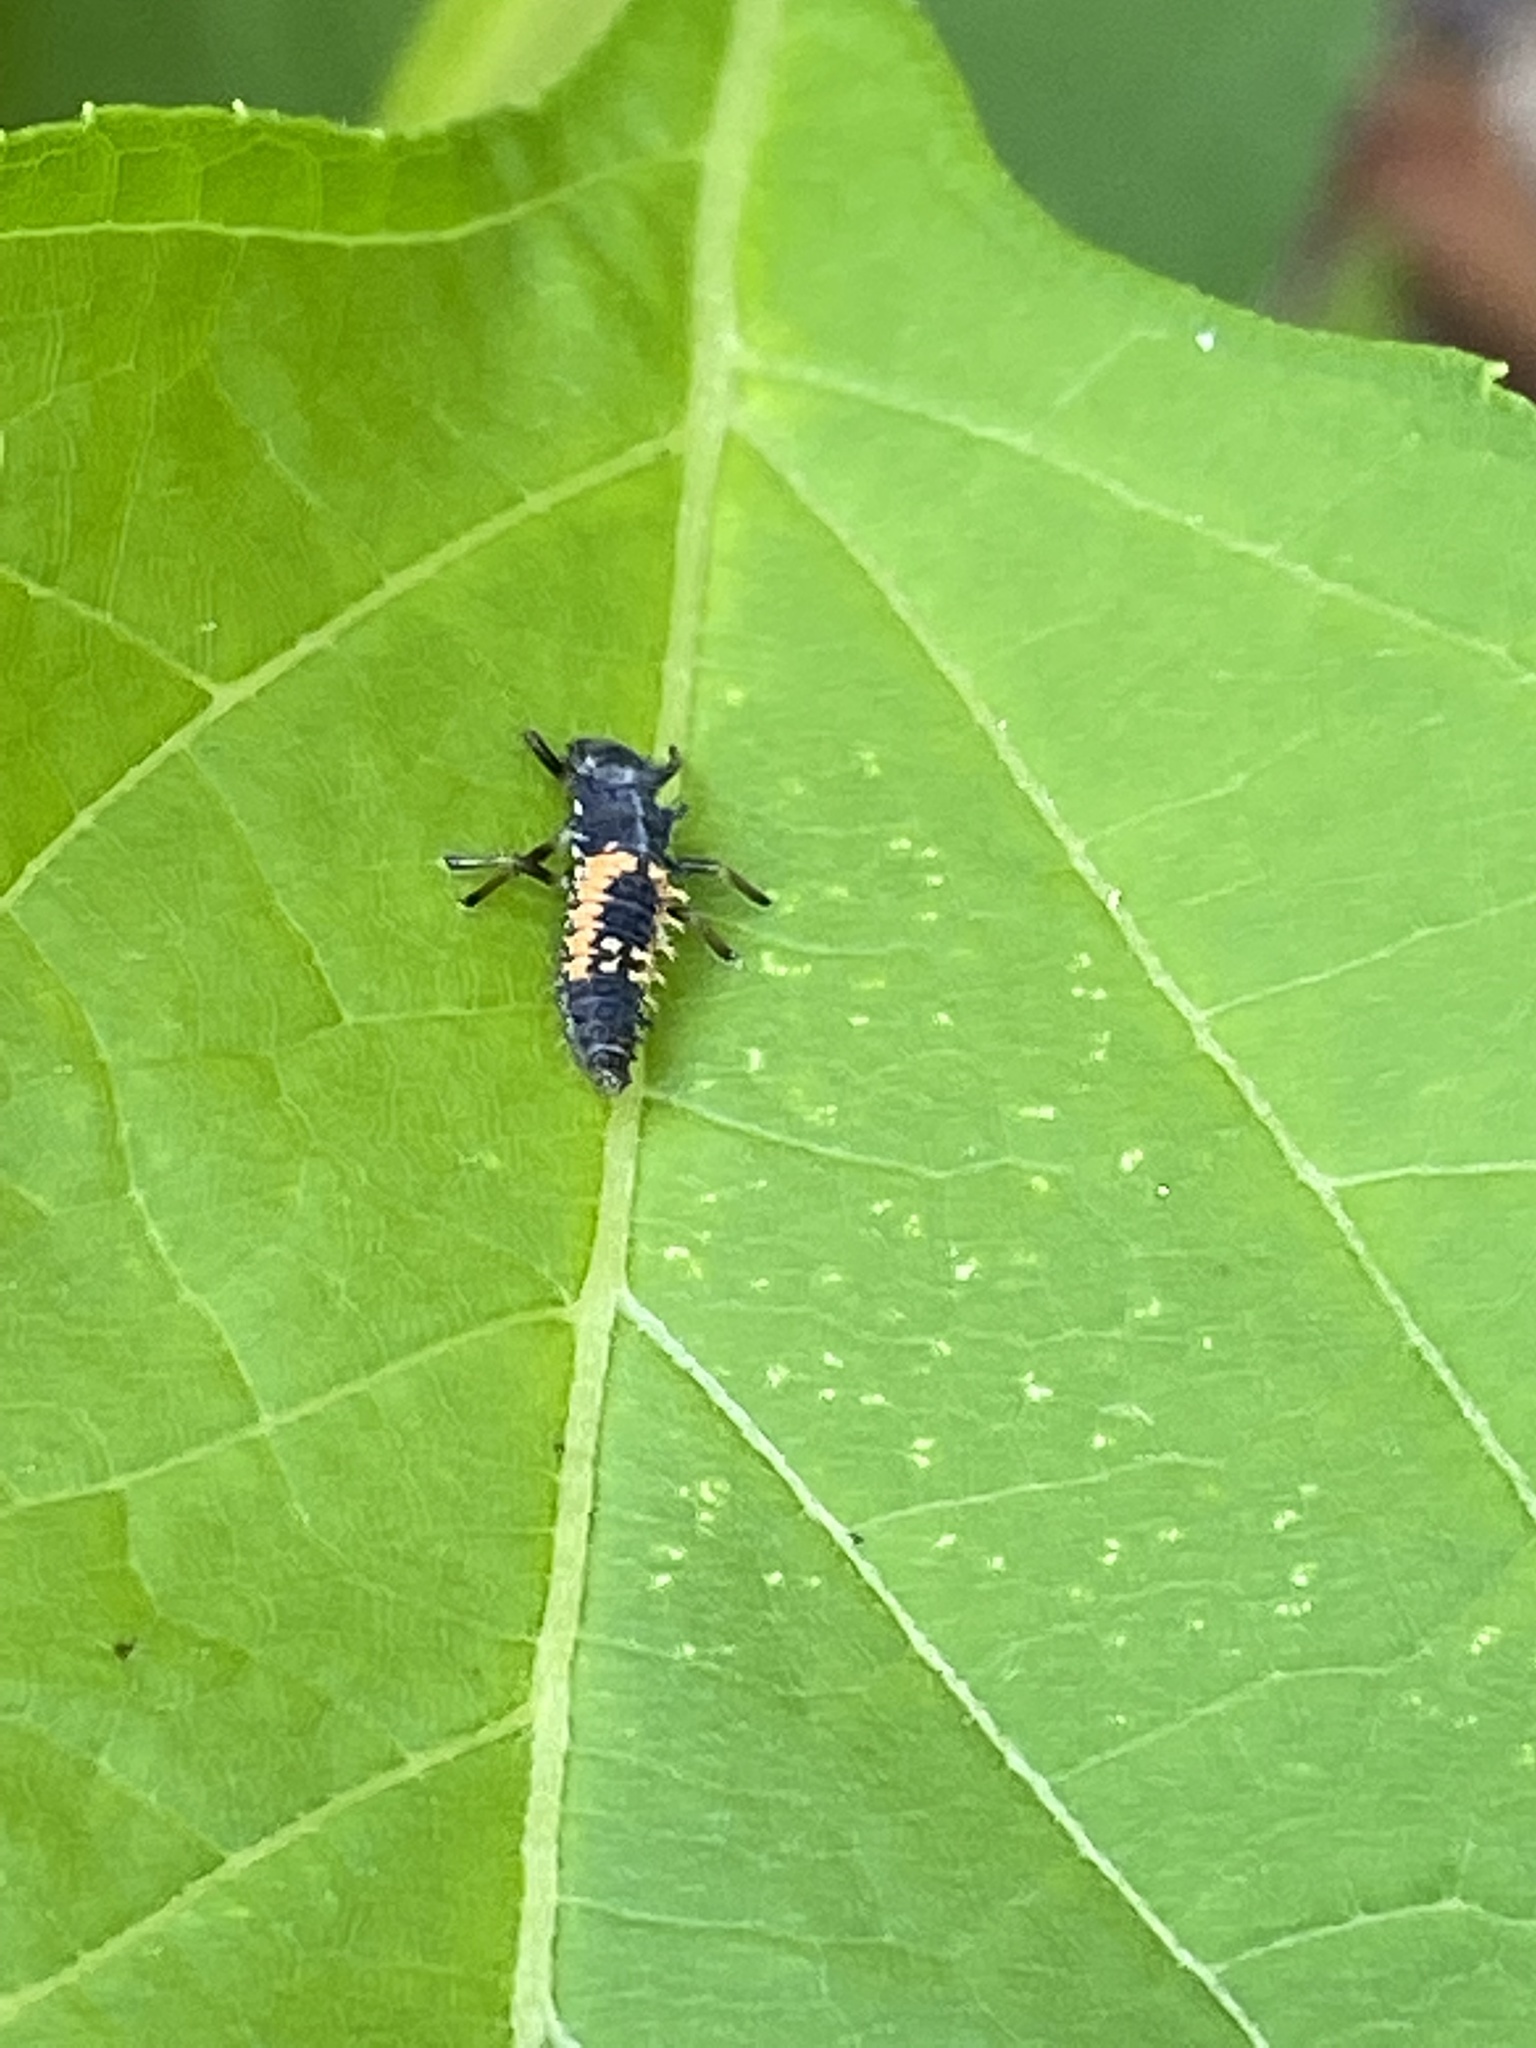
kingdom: Animalia
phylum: Arthropoda
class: Insecta
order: Coleoptera
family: Coccinellidae
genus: Harmonia
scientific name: Harmonia axyridis
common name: Harlequin ladybird
